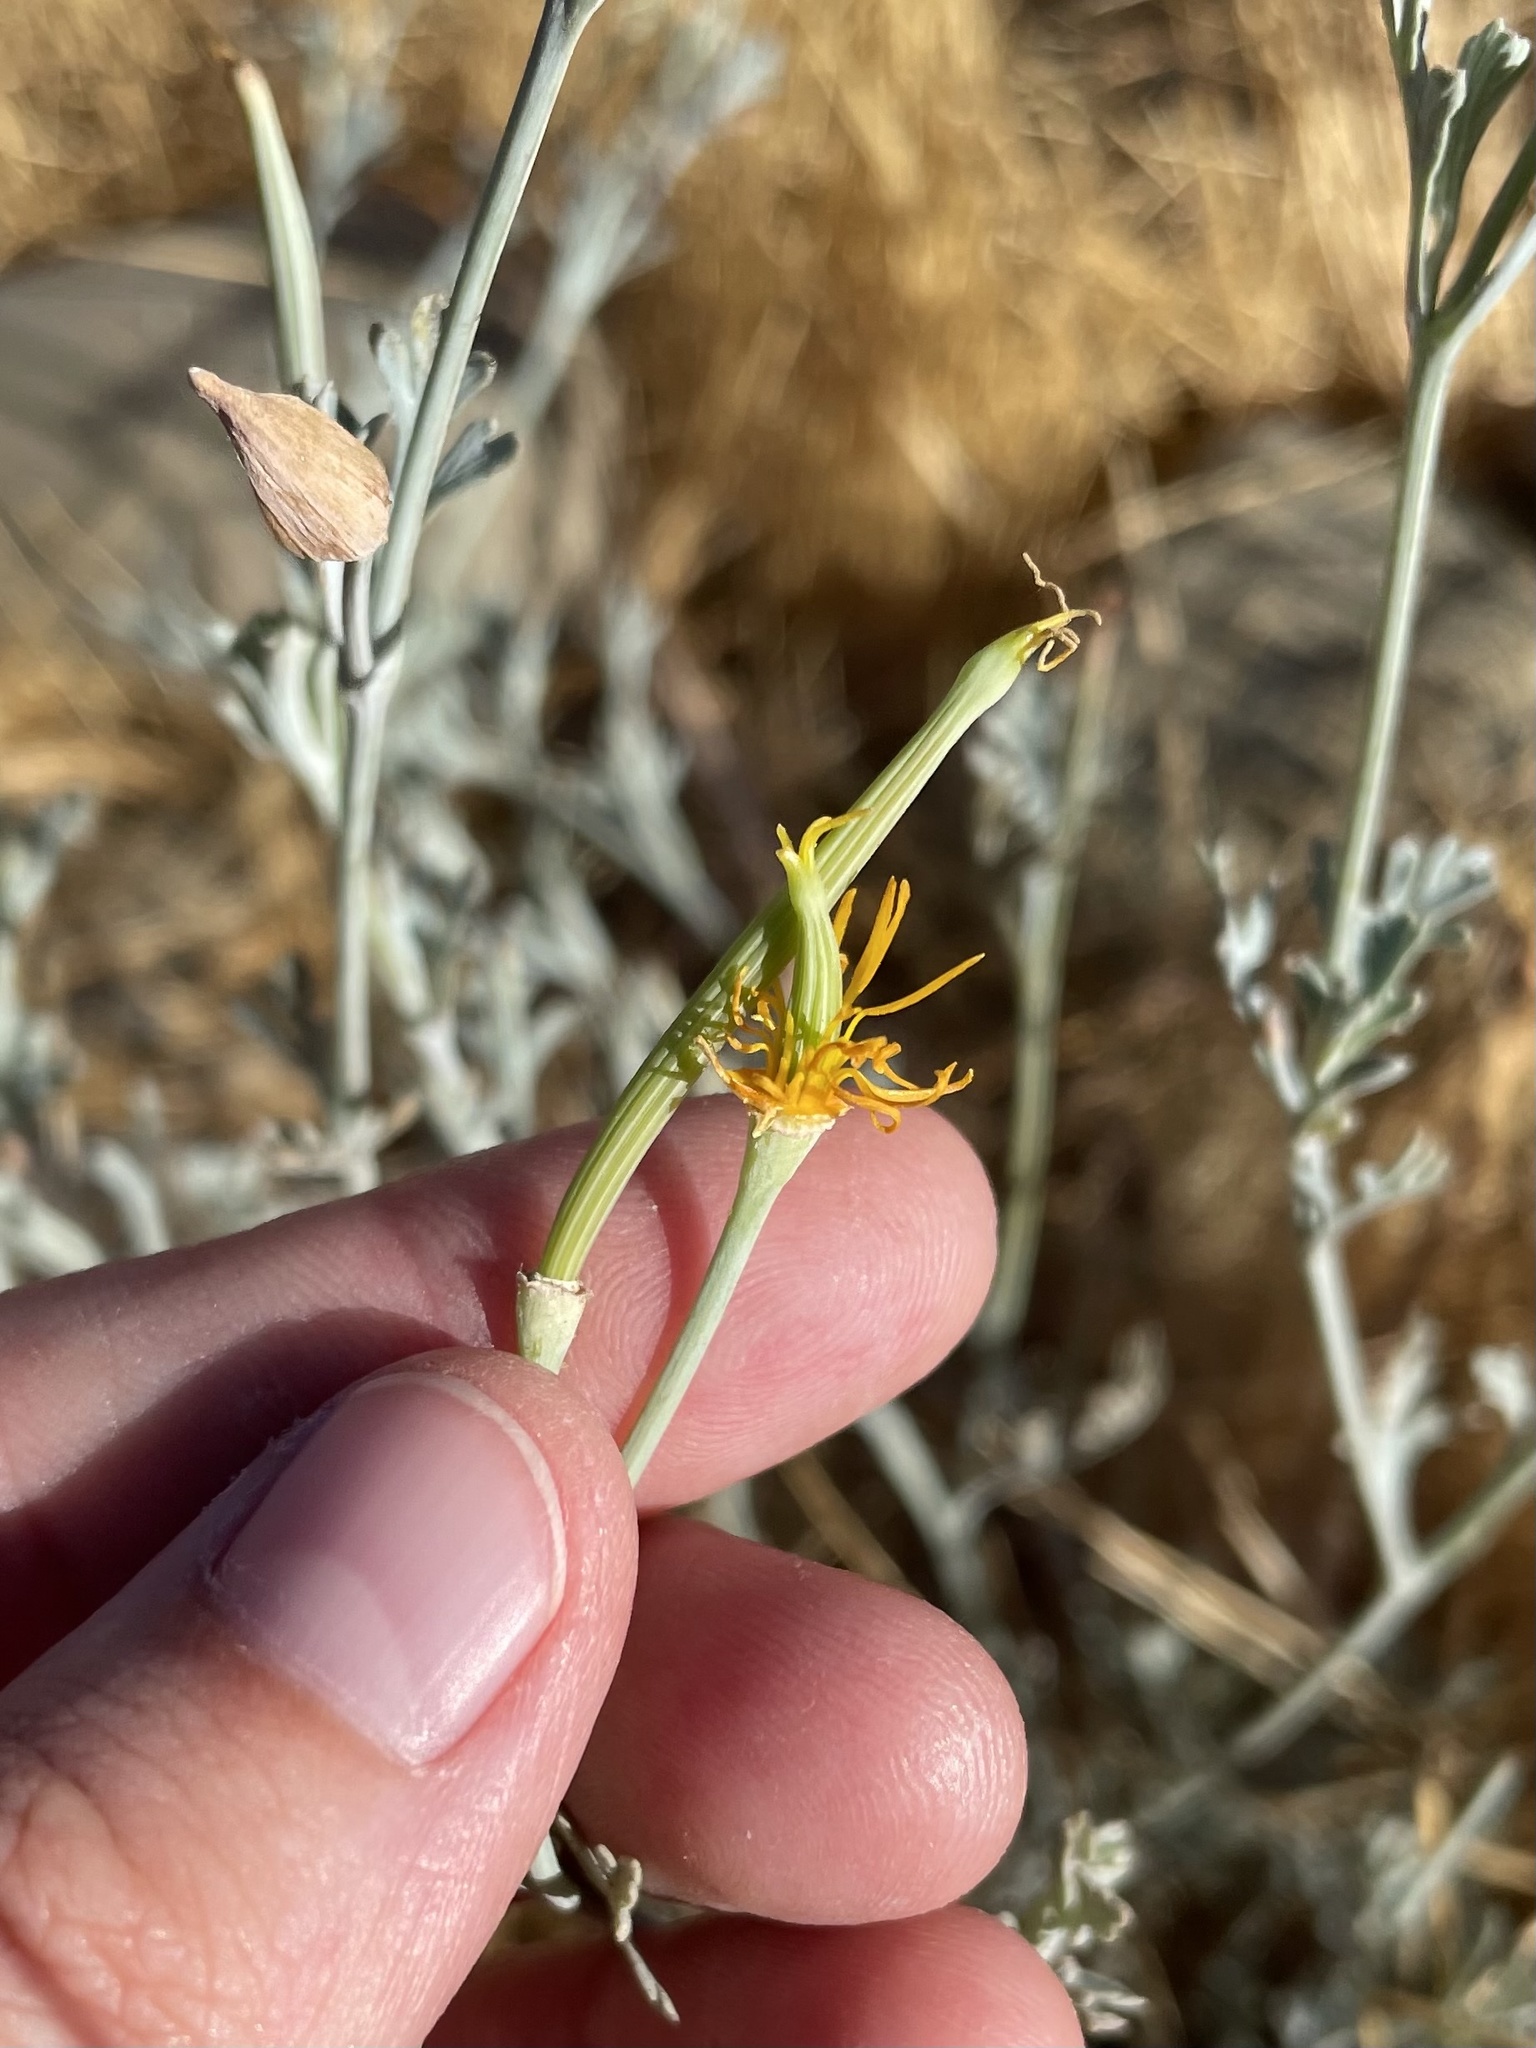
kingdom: Plantae
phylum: Tracheophyta
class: Magnoliopsida
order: Ranunculales
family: Papaveraceae
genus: Eschscholzia
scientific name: Eschscholzia californica
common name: California poppy
